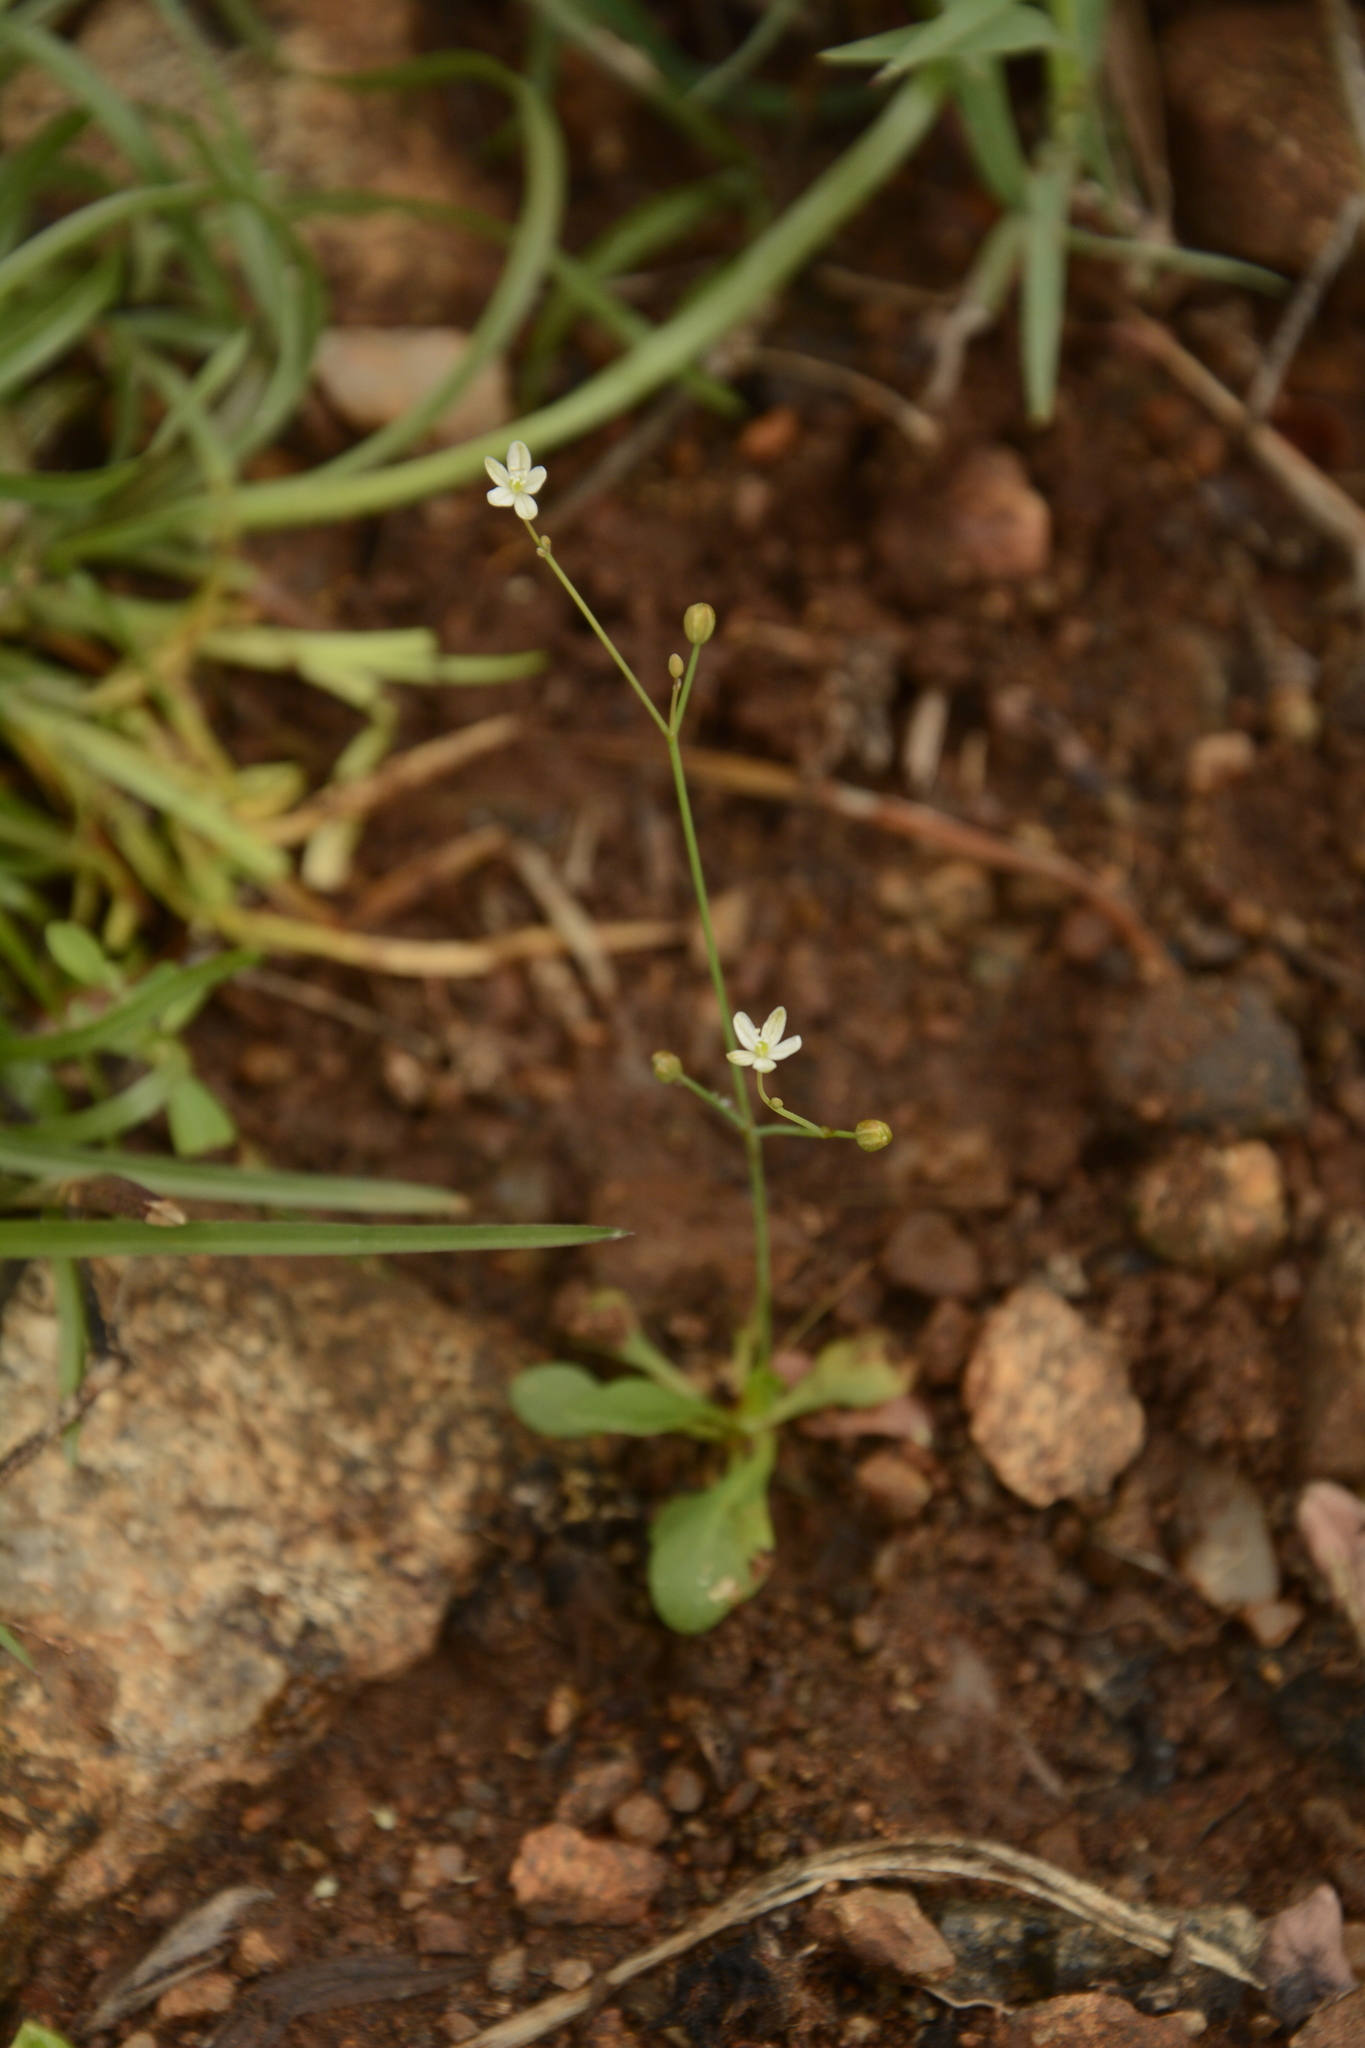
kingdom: Plantae
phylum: Tracheophyta
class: Magnoliopsida
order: Caryophyllales
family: Molluginaceae
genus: Paramollugo
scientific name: Paramollugo nudicaulis
